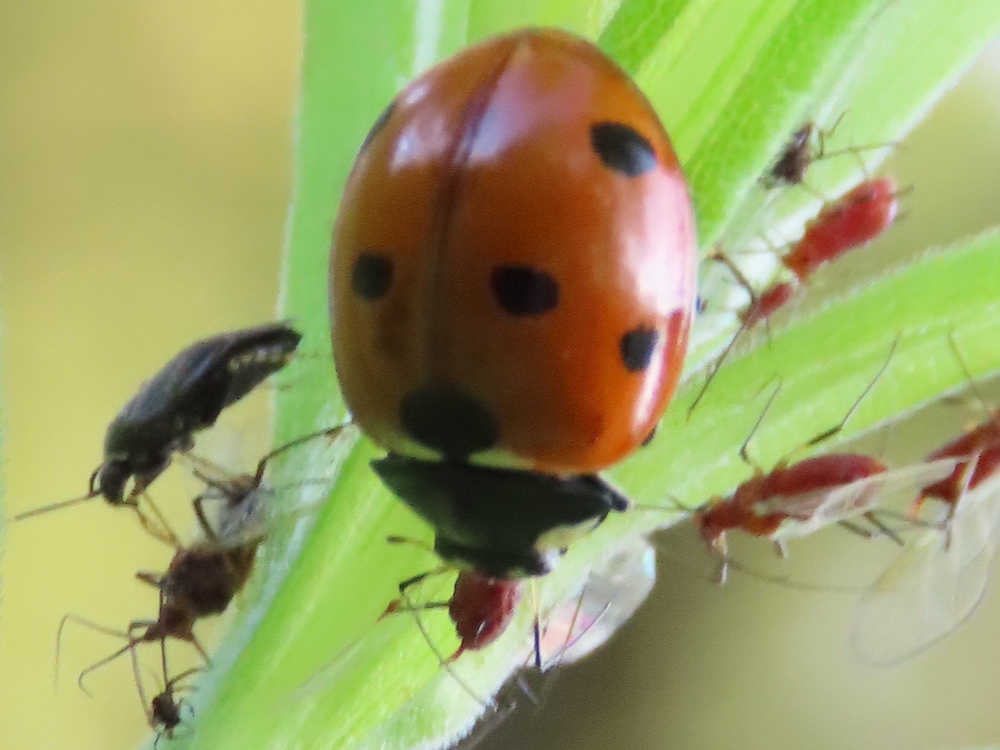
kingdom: Animalia
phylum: Arthropoda
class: Insecta
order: Coleoptera
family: Coccinellidae
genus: Coccinella
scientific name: Coccinella septempunctata
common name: Sevenspotted lady beetle
